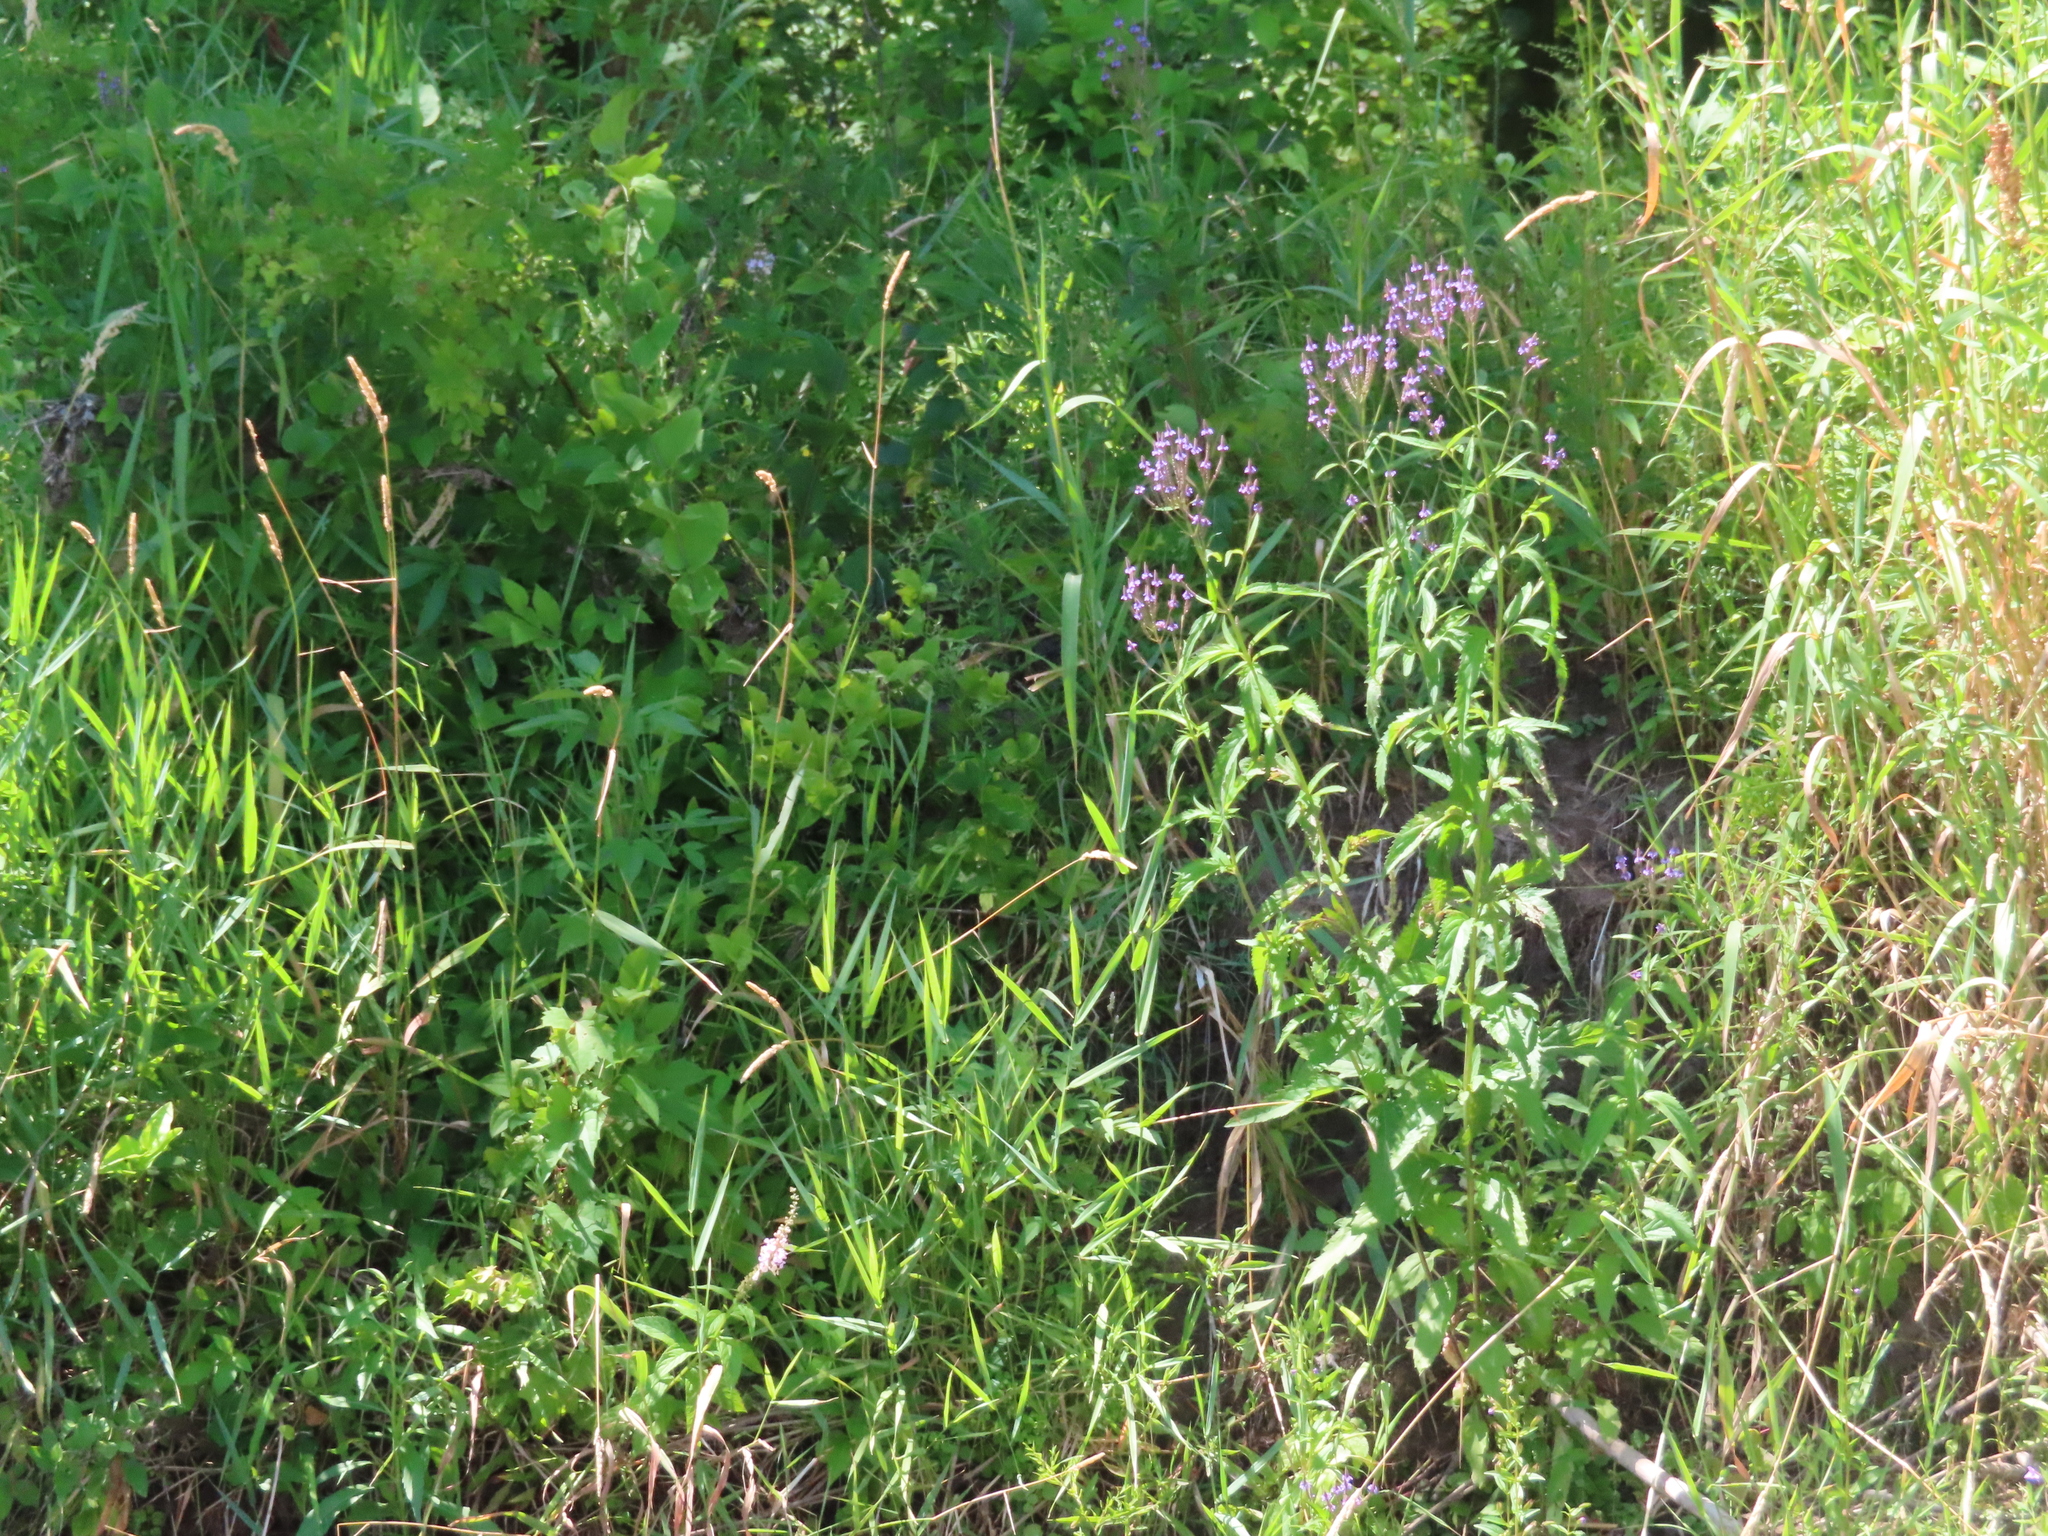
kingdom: Plantae
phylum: Tracheophyta
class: Magnoliopsida
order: Lamiales
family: Verbenaceae
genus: Verbena
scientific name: Verbena hastata
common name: American blue vervain
